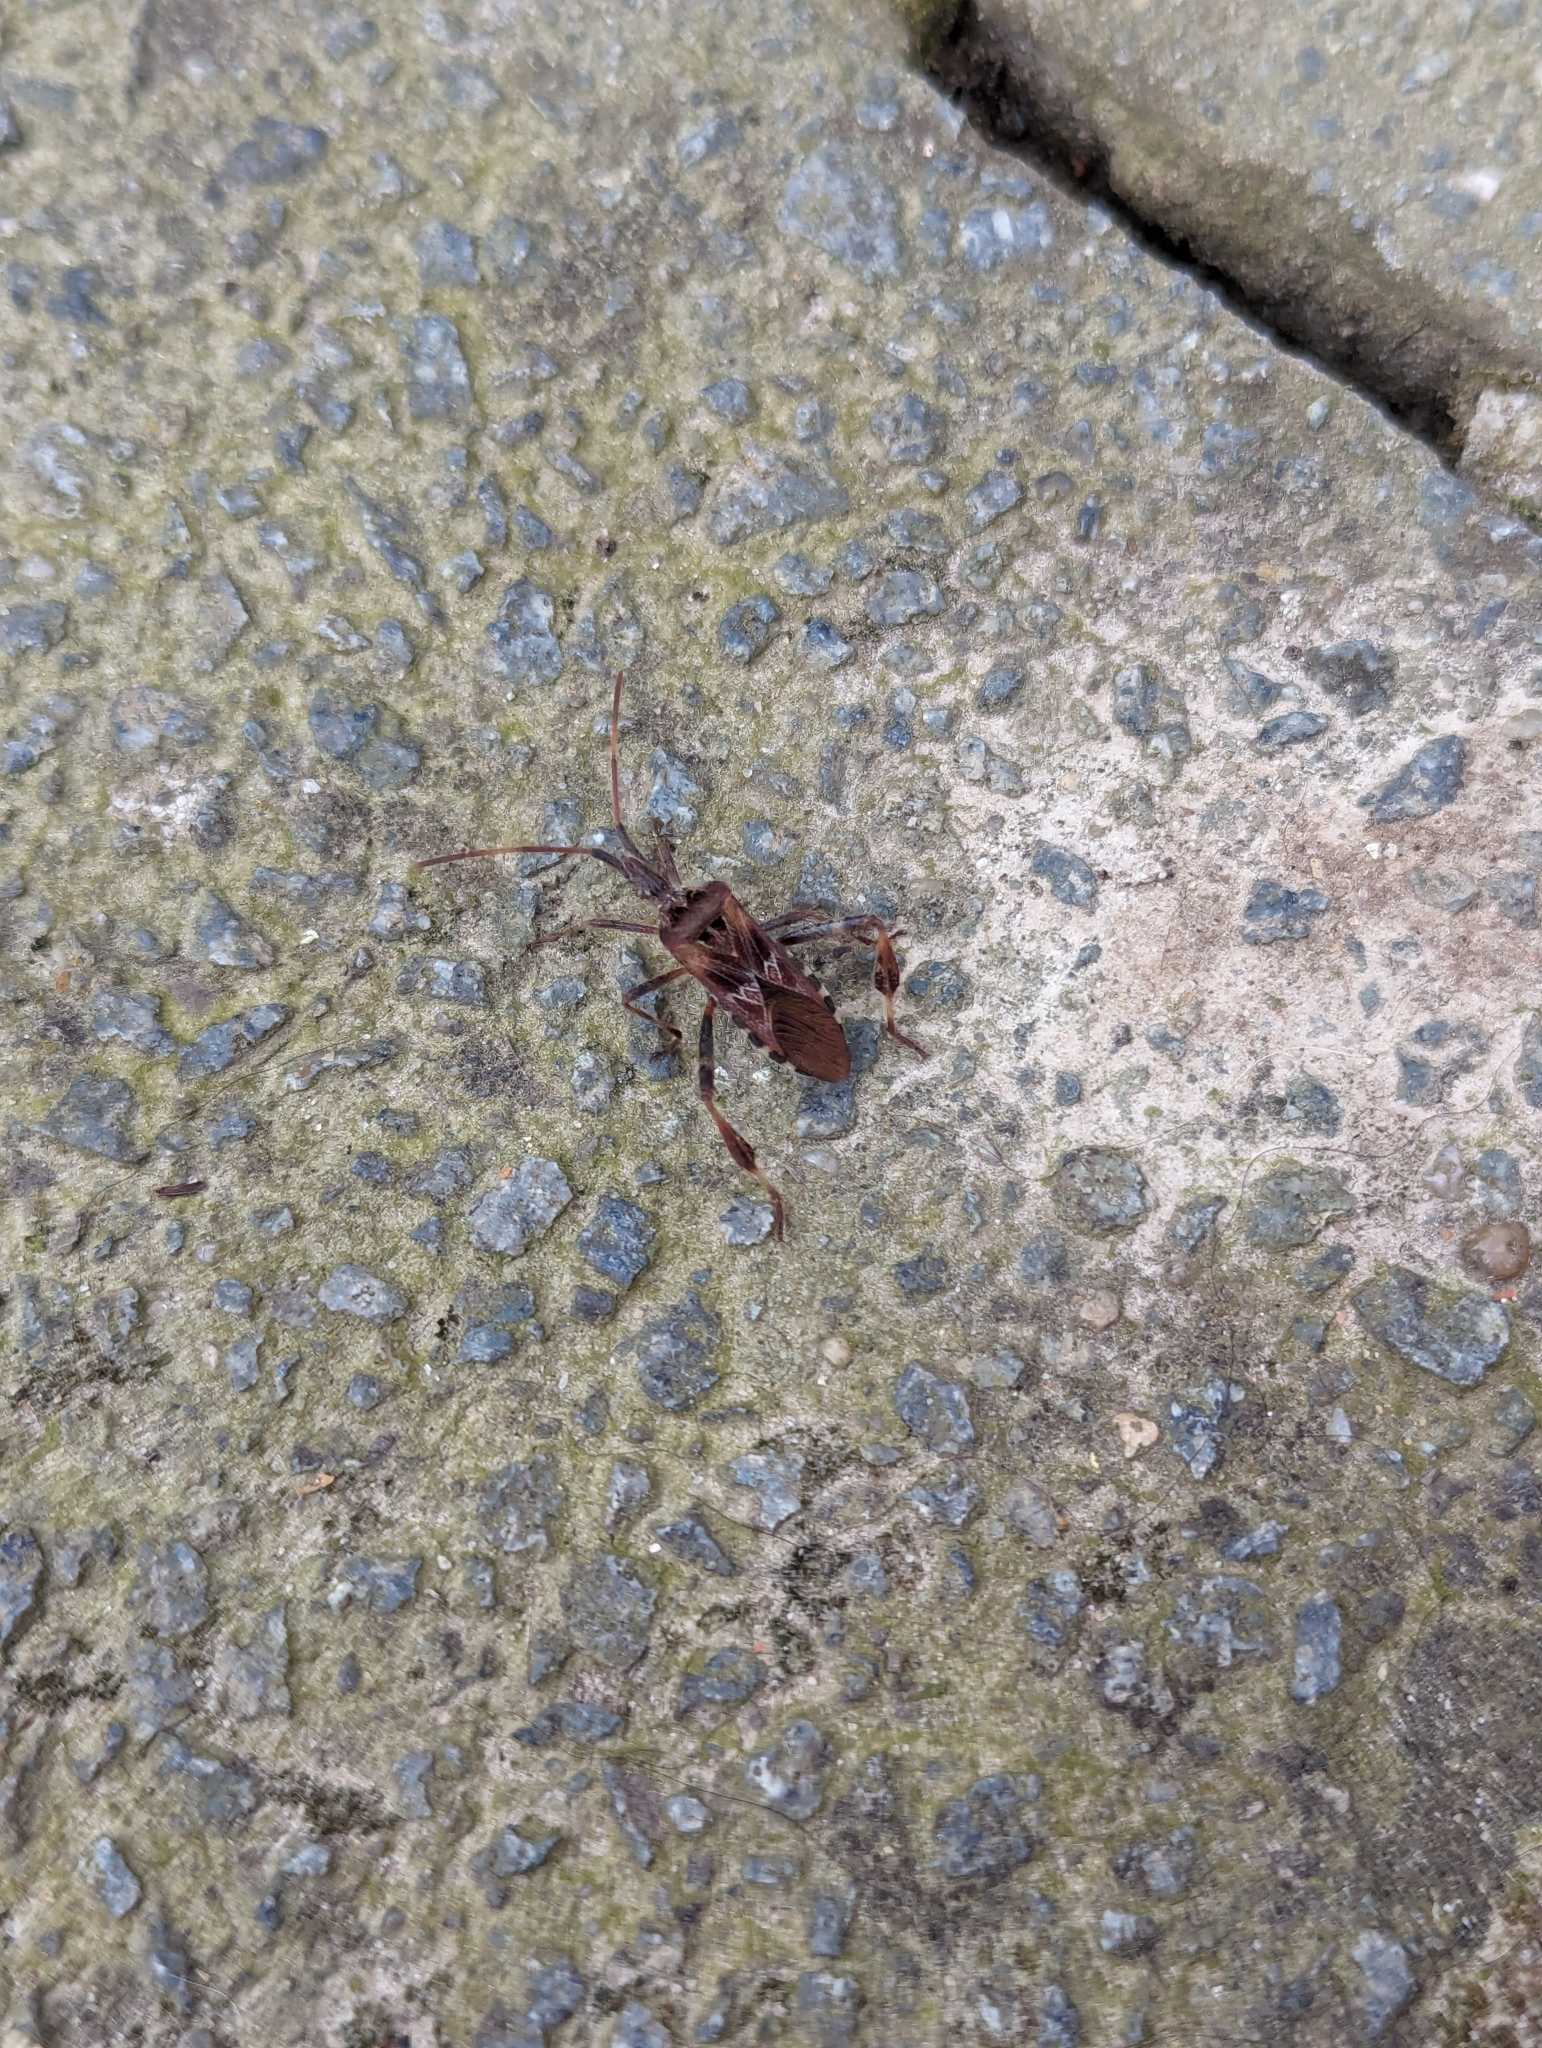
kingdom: Animalia
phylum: Arthropoda
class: Insecta
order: Hemiptera
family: Coreidae
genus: Leptoglossus
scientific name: Leptoglossus occidentalis
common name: Western conifer-seed bug
